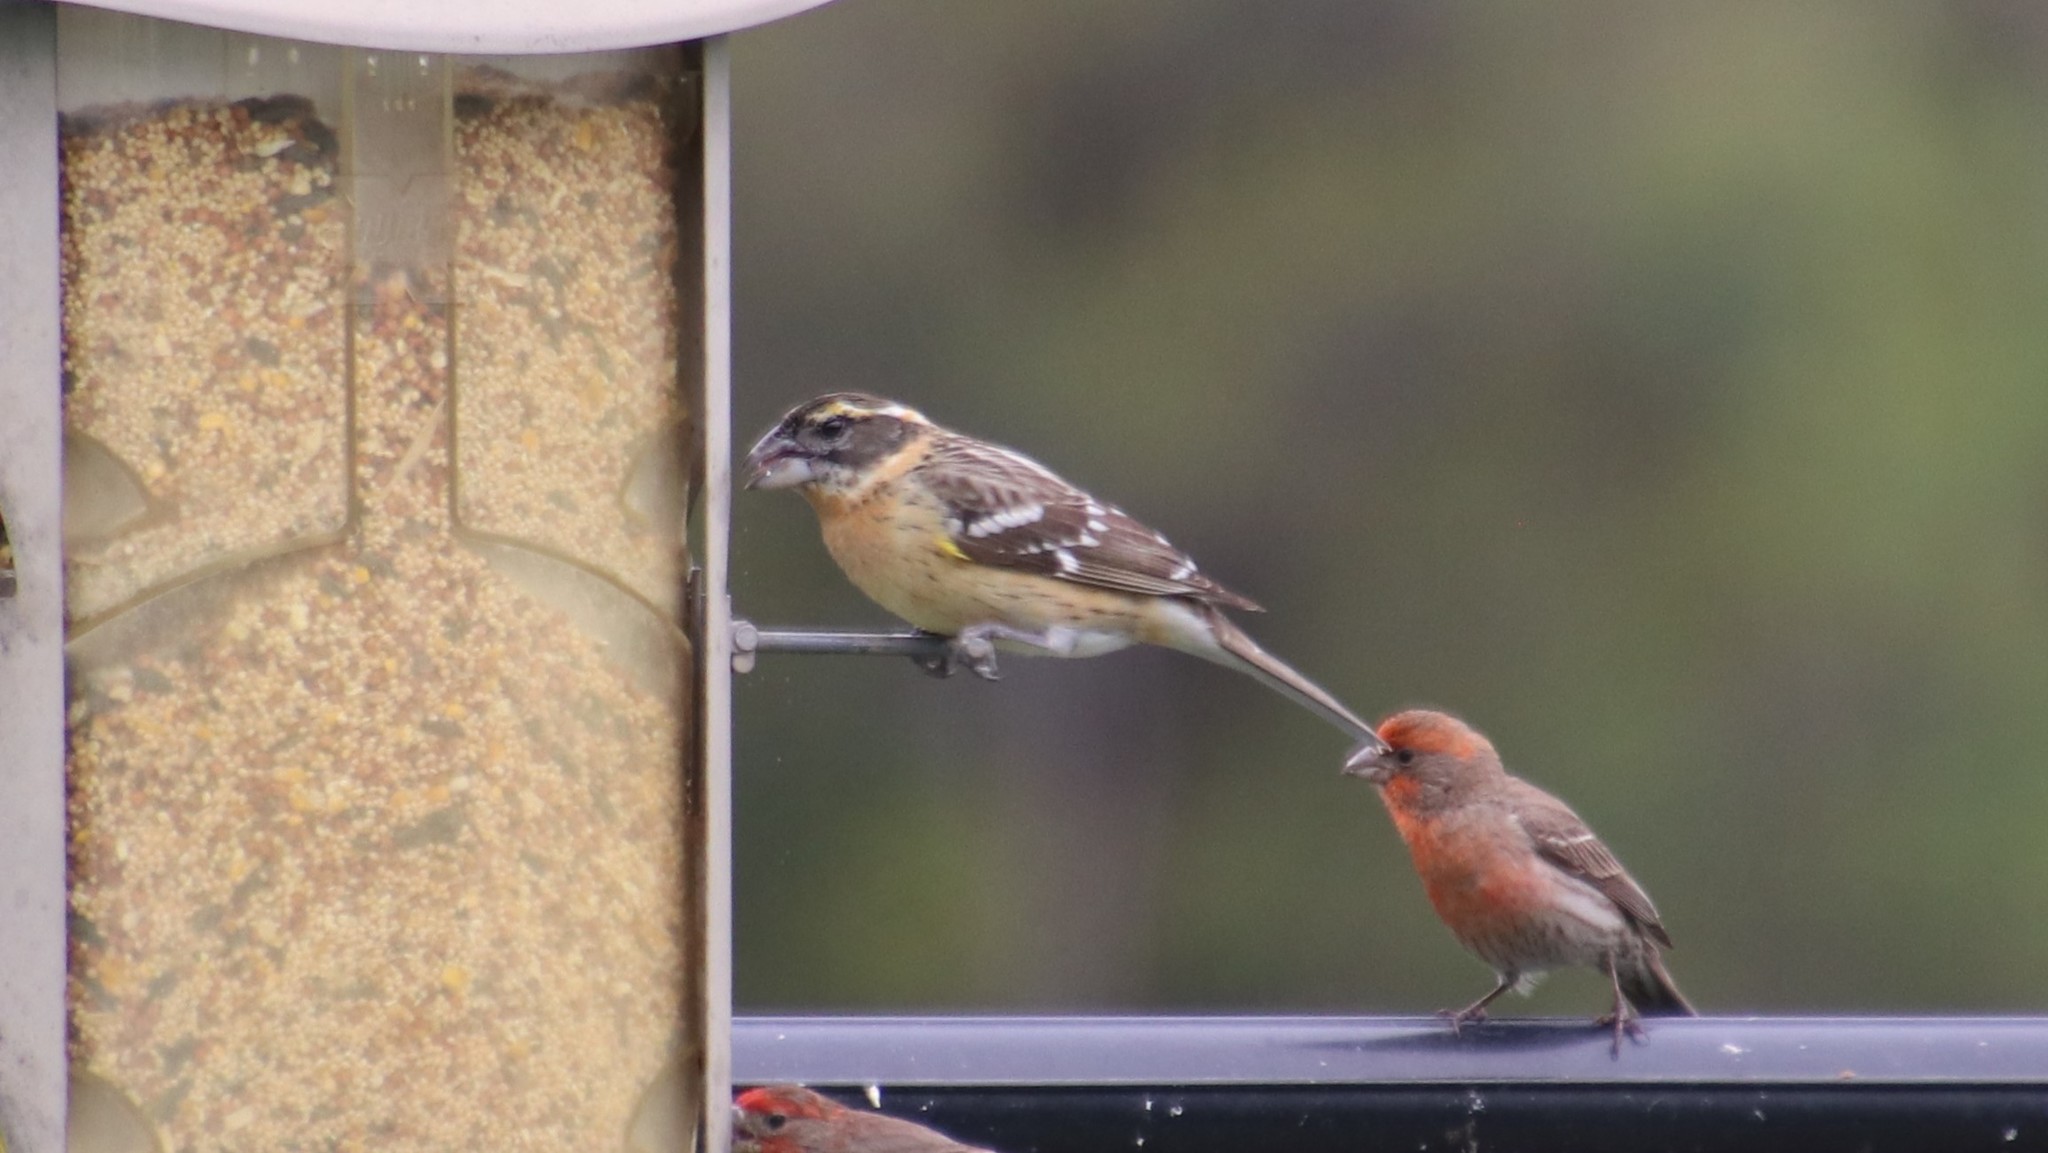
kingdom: Animalia
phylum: Chordata
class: Aves
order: Passeriformes
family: Cardinalidae
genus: Pheucticus
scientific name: Pheucticus melanocephalus
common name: Black-headed grosbeak
